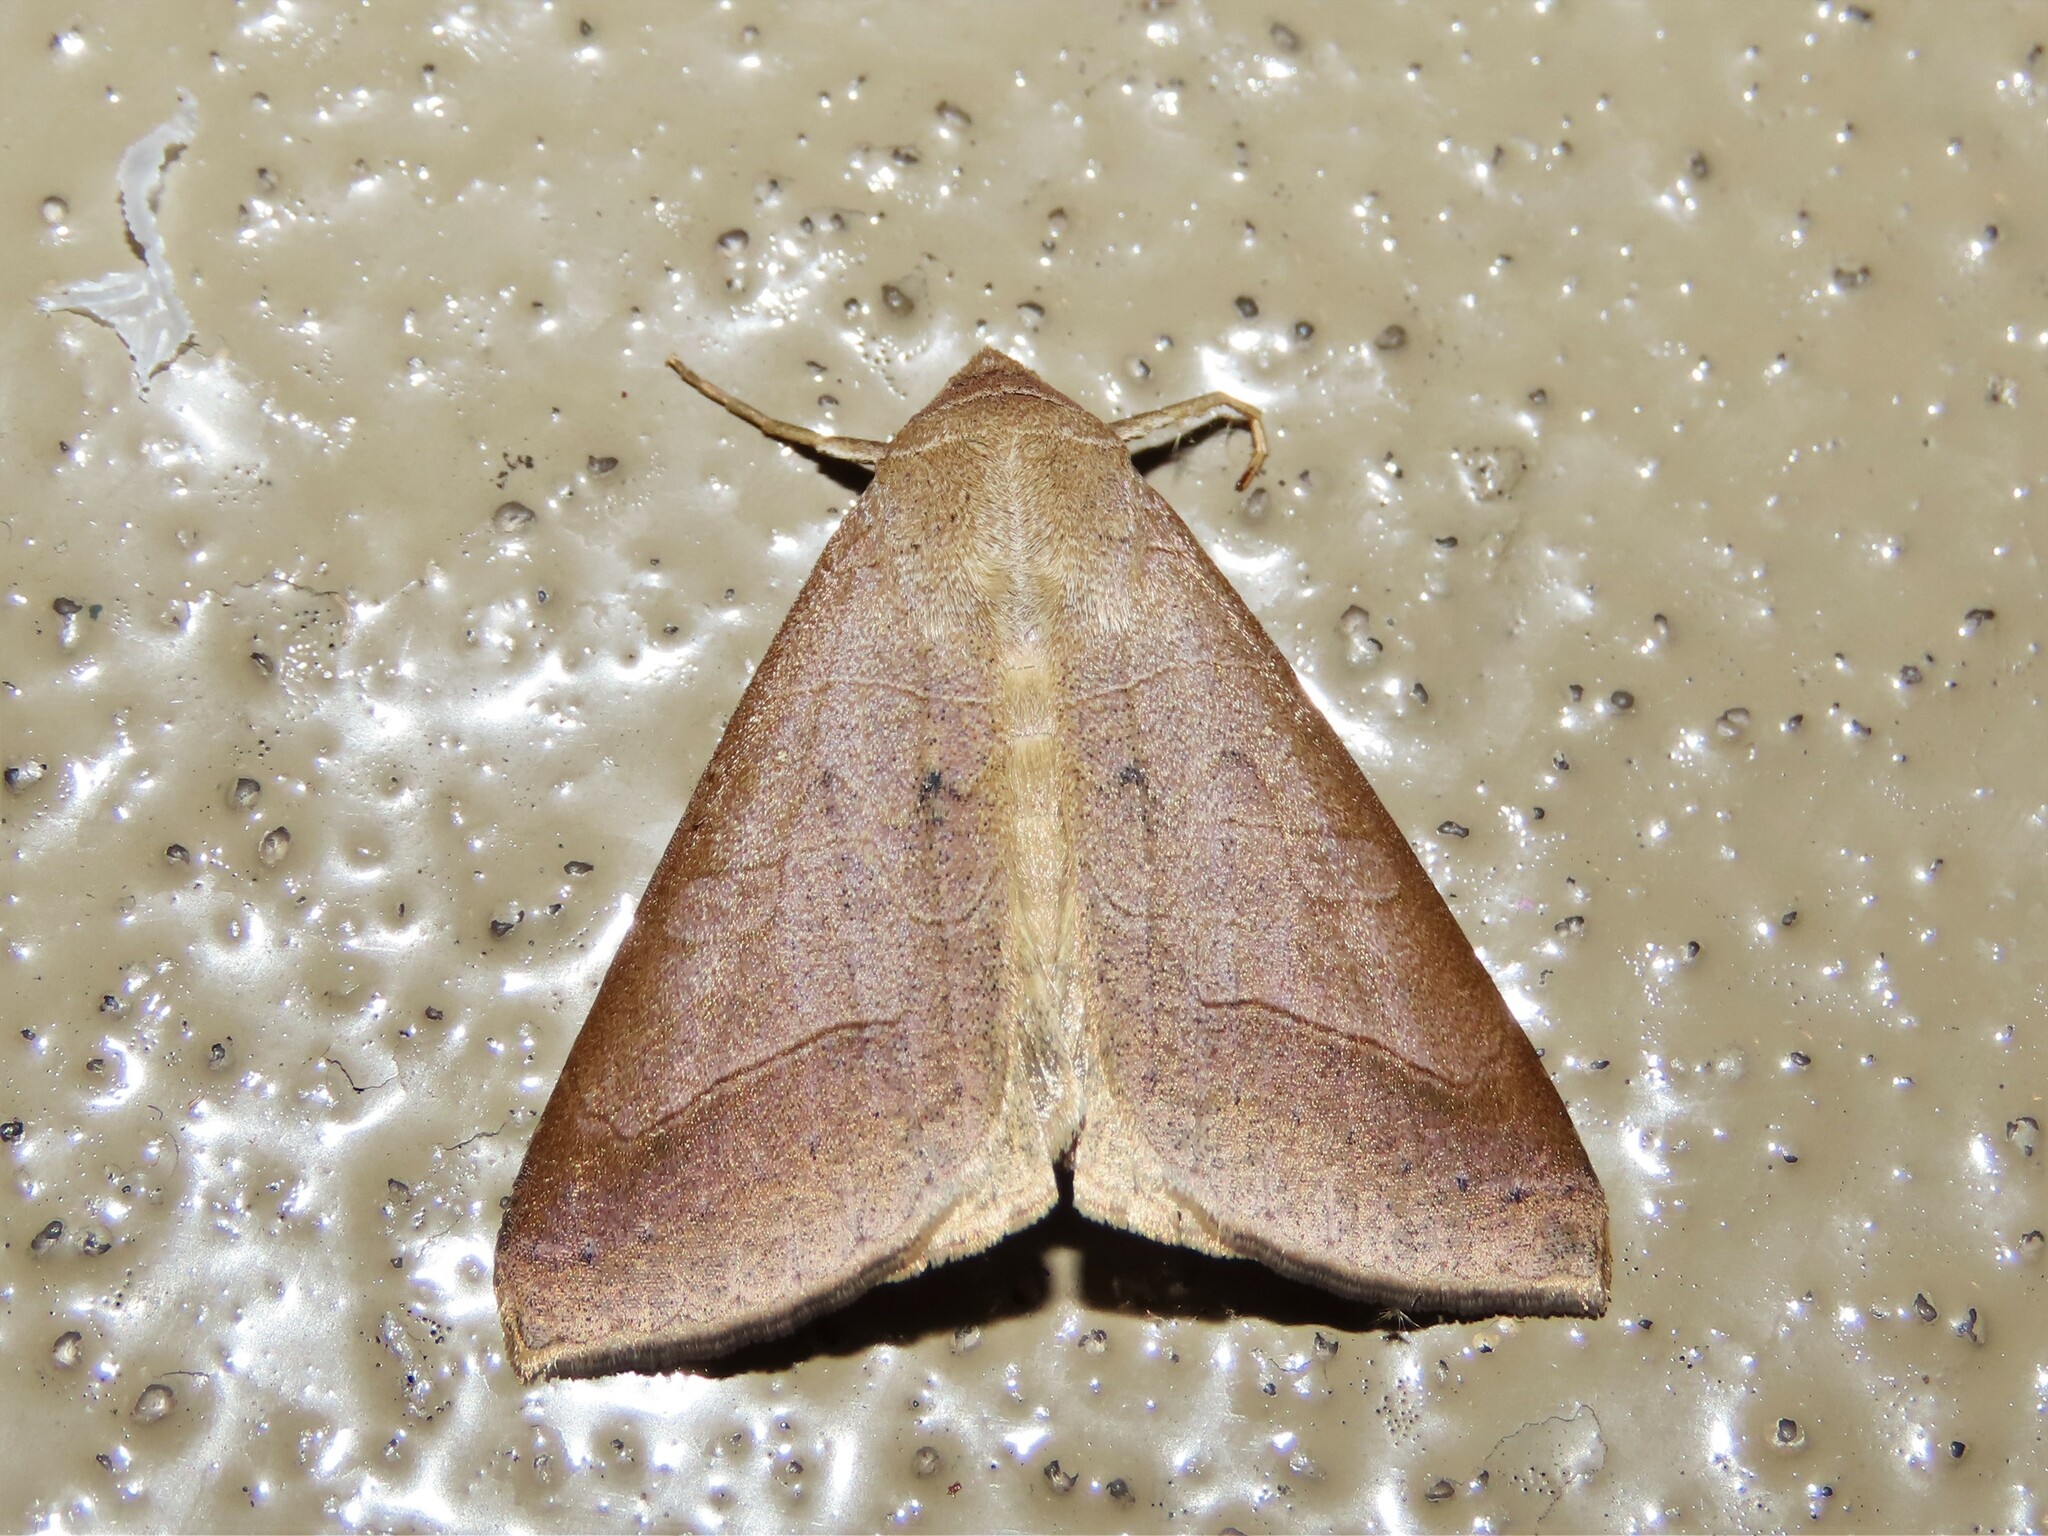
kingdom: Animalia
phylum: Arthropoda
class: Insecta
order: Lepidoptera
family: Erebidae
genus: Mocis
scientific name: Mocis marcida
